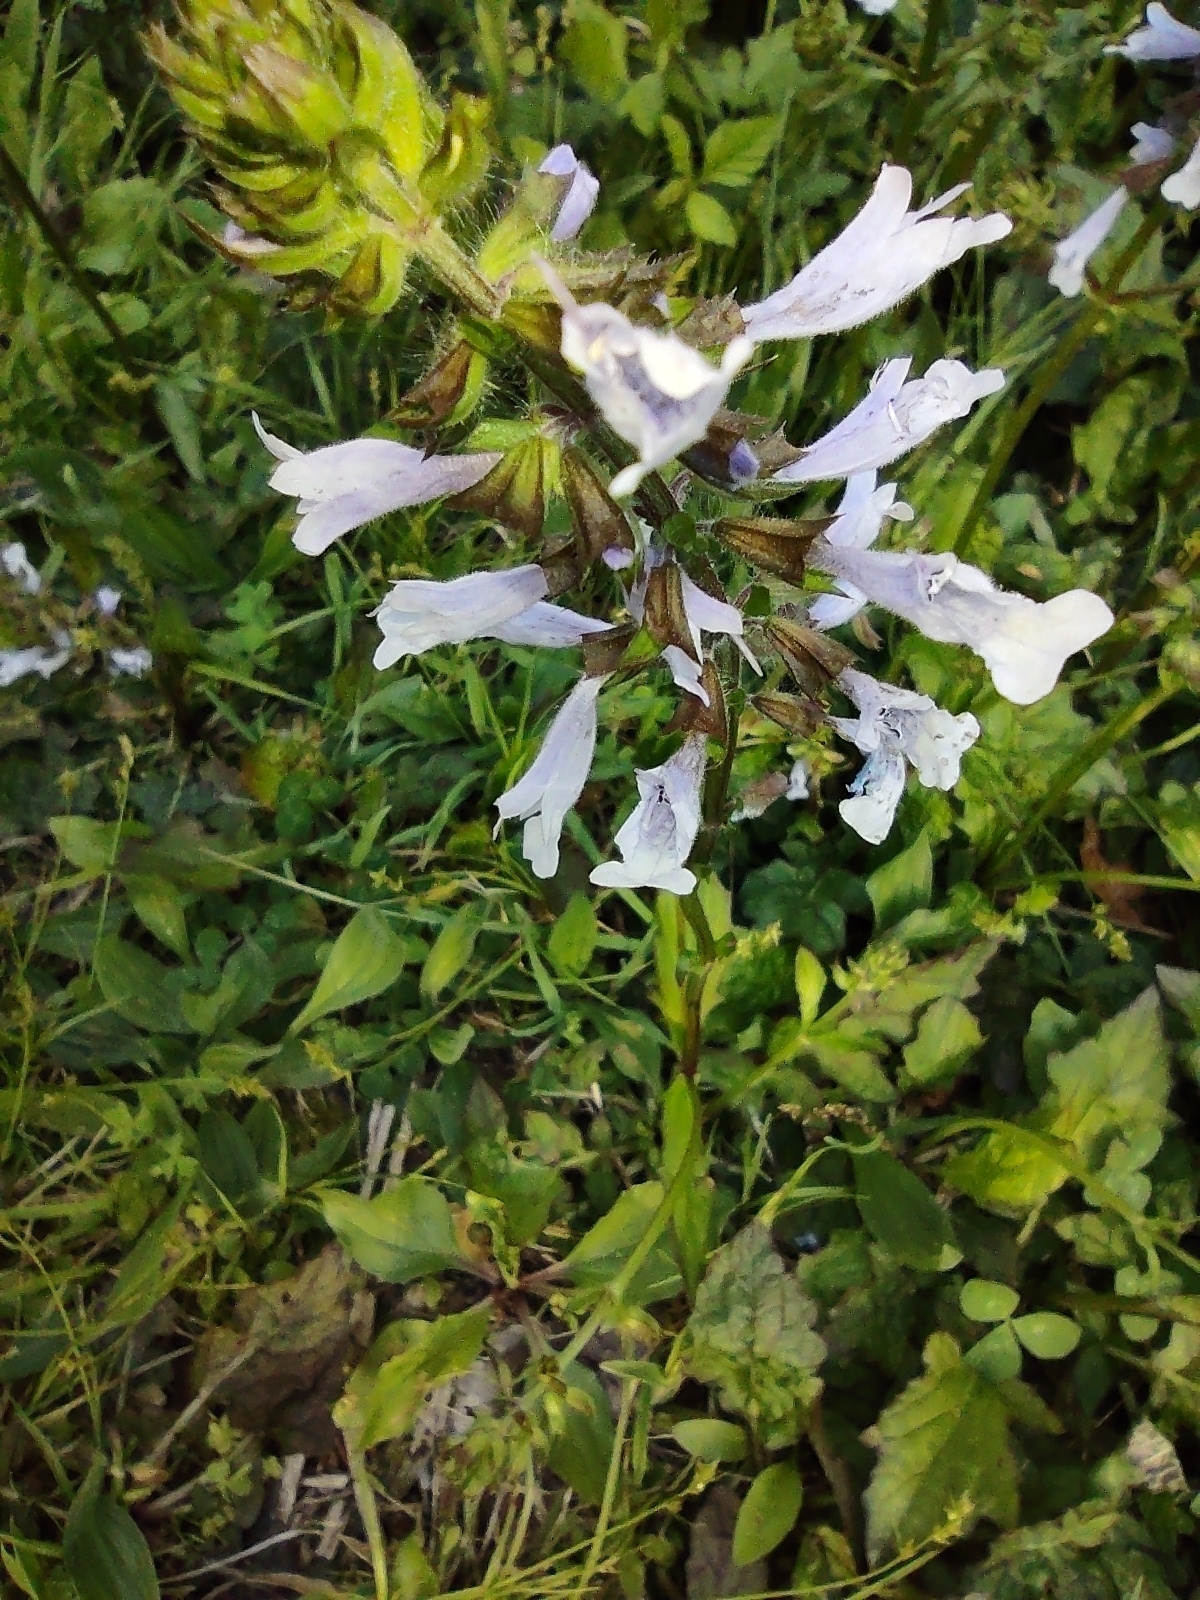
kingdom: Plantae
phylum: Tracheophyta
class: Magnoliopsida
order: Lamiales
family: Lamiaceae
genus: Salvia
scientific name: Salvia lyrata
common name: Cancerweed
